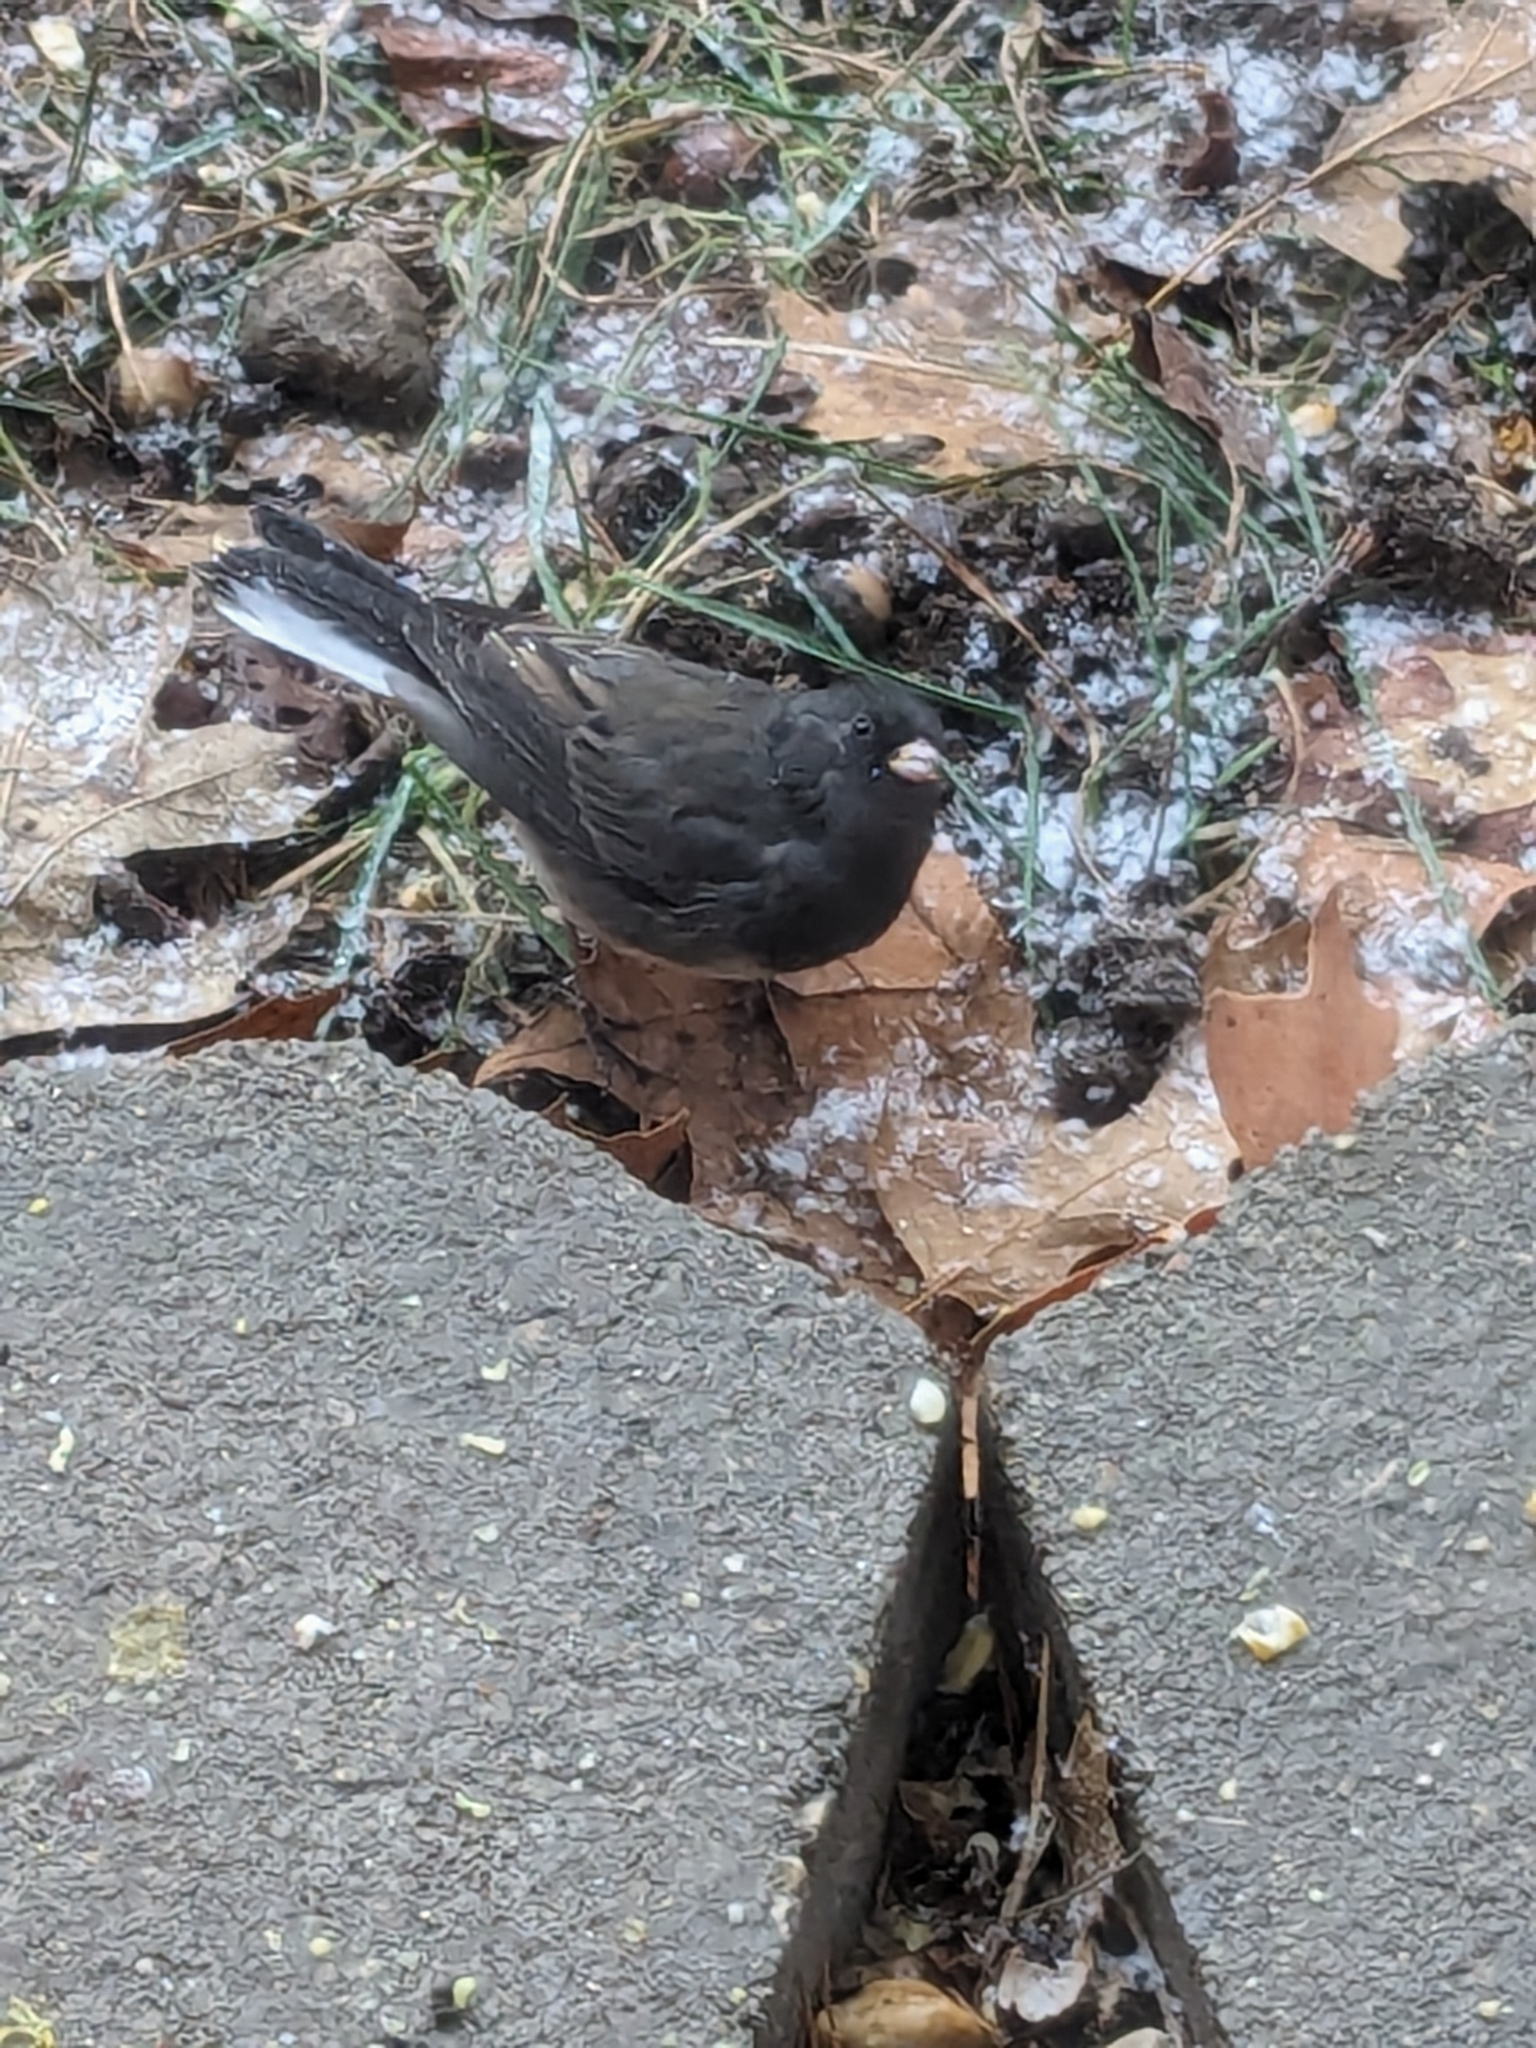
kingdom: Animalia
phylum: Chordata
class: Aves
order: Passeriformes
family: Passerellidae
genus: Junco
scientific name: Junco hyemalis
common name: Dark-eyed junco
